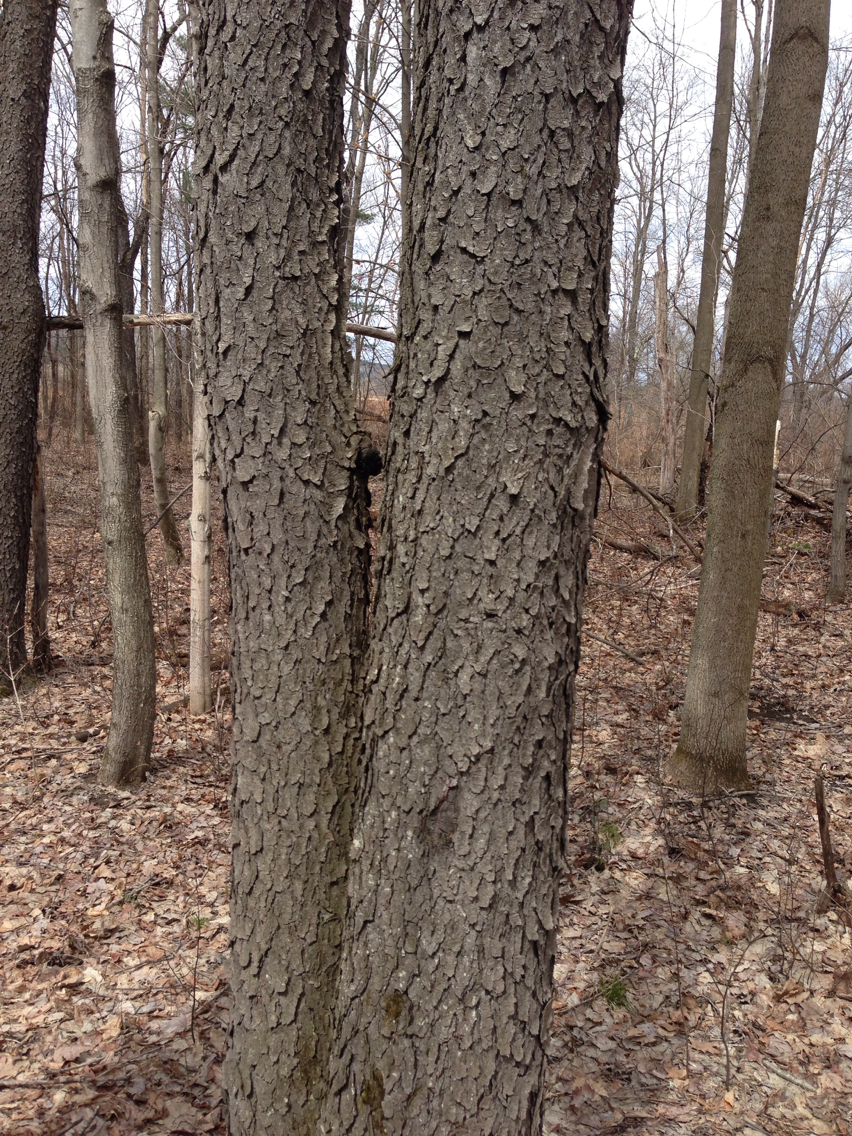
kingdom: Plantae
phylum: Tracheophyta
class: Magnoliopsida
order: Rosales
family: Rosaceae
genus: Prunus
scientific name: Prunus serotina
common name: Black cherry
